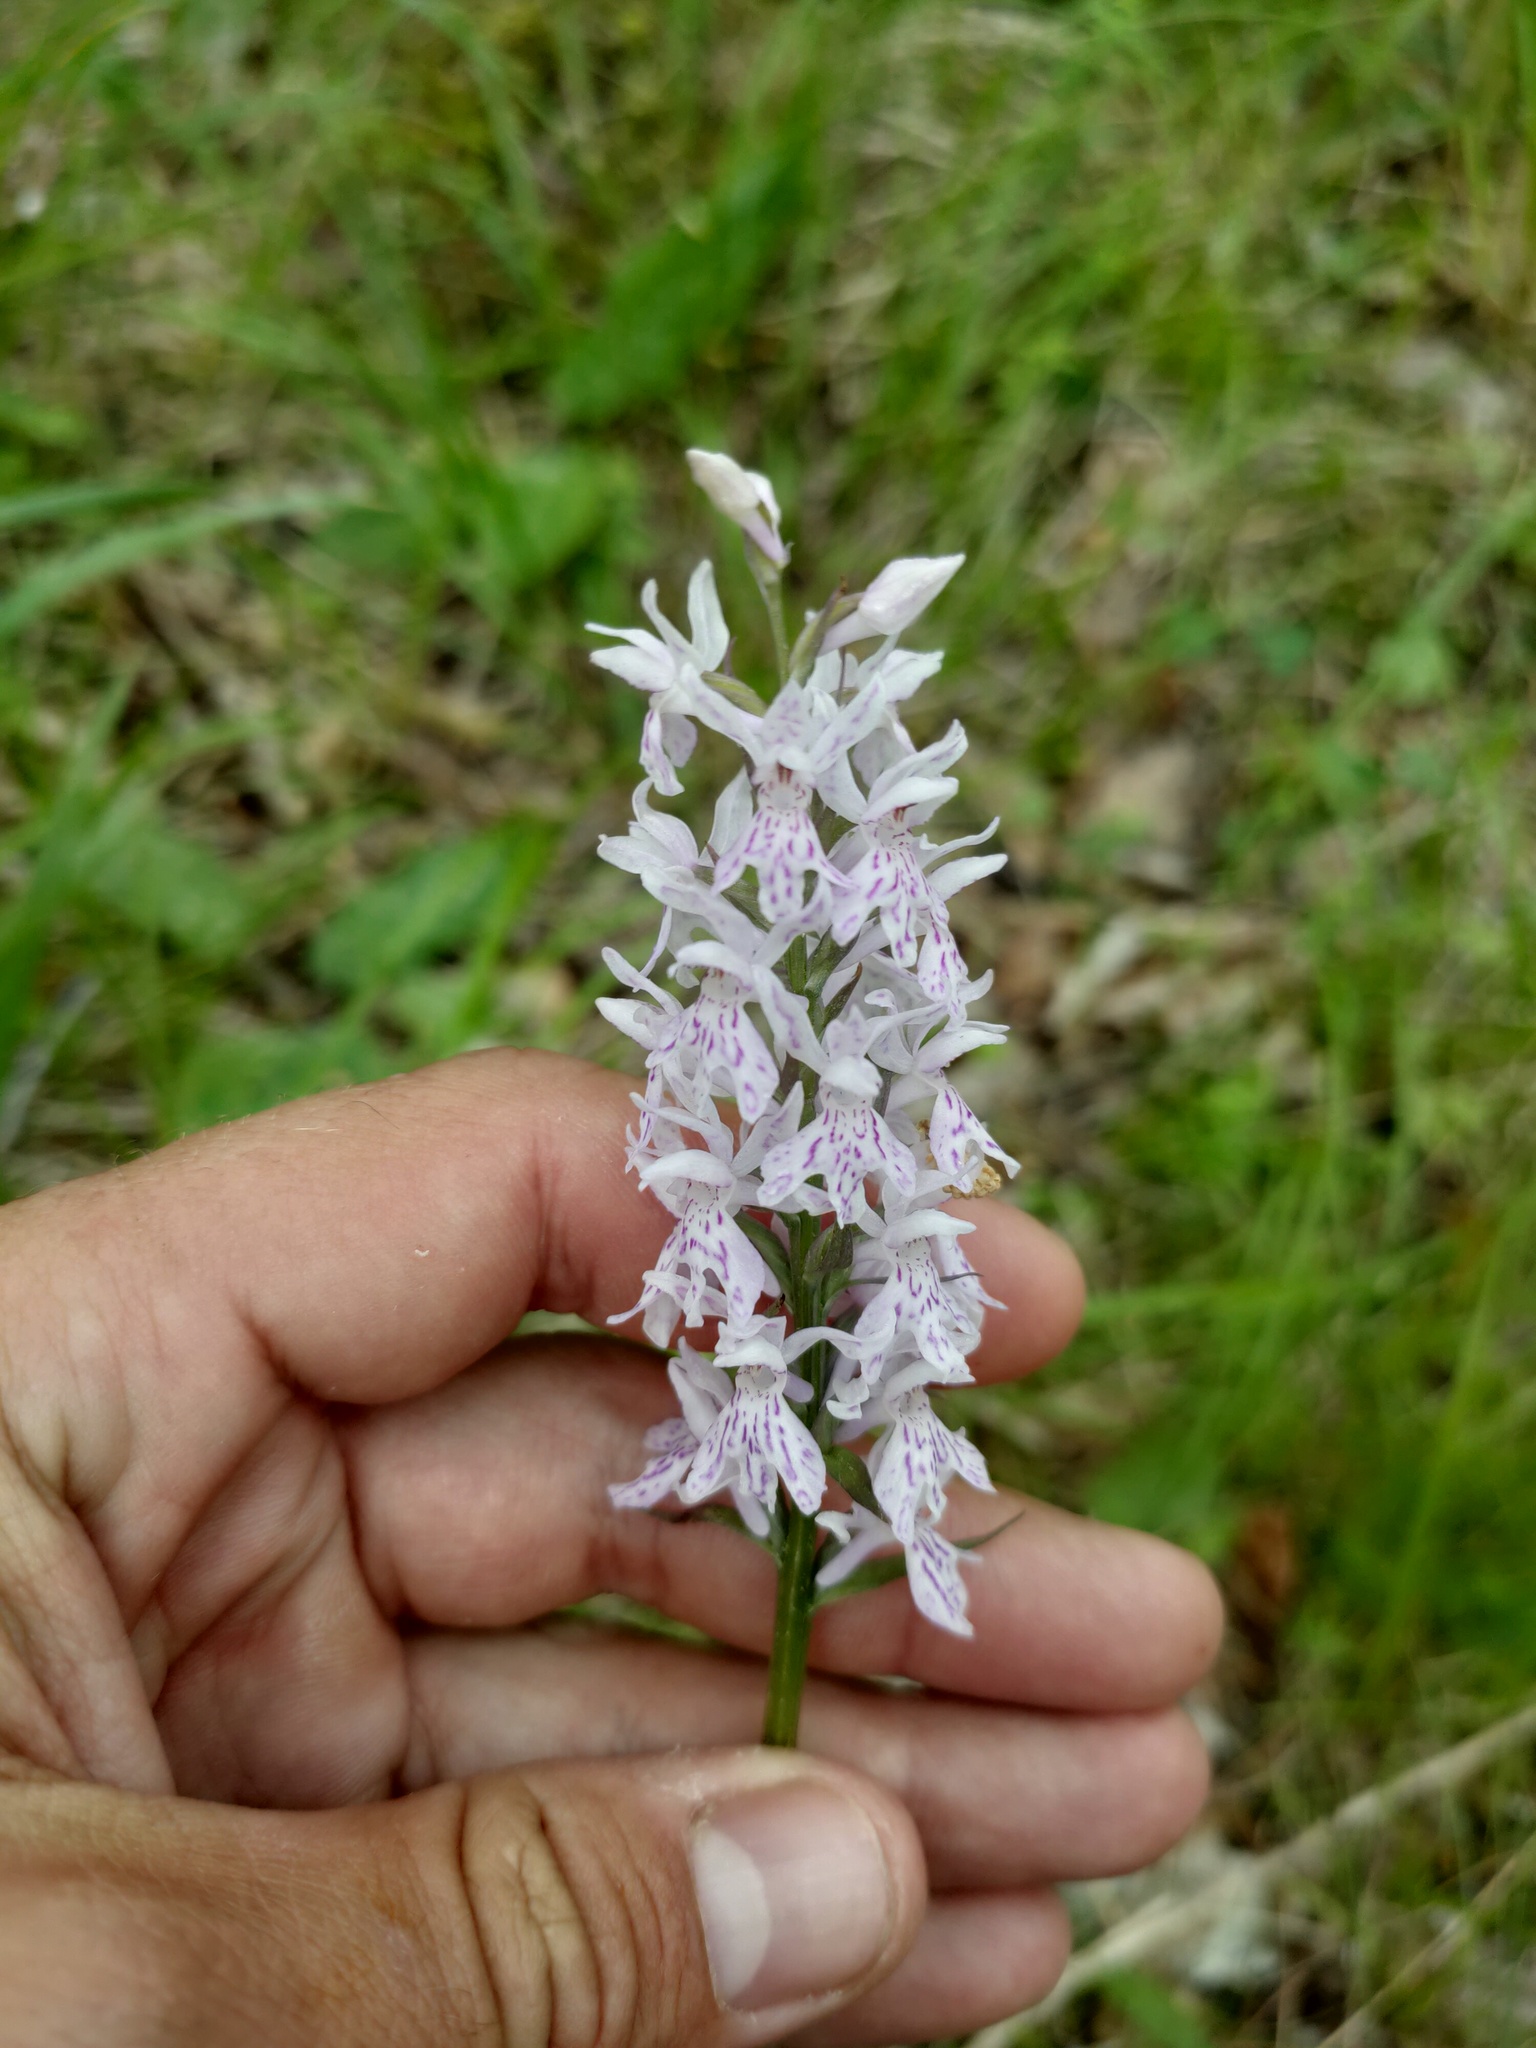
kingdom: Plantae
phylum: Tracheophyta
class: Liliopsida
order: Asparagales
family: Orchidaceae
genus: Dactylorhiza
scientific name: Dactylorhiza maculata
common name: Heath spotted-orchid
